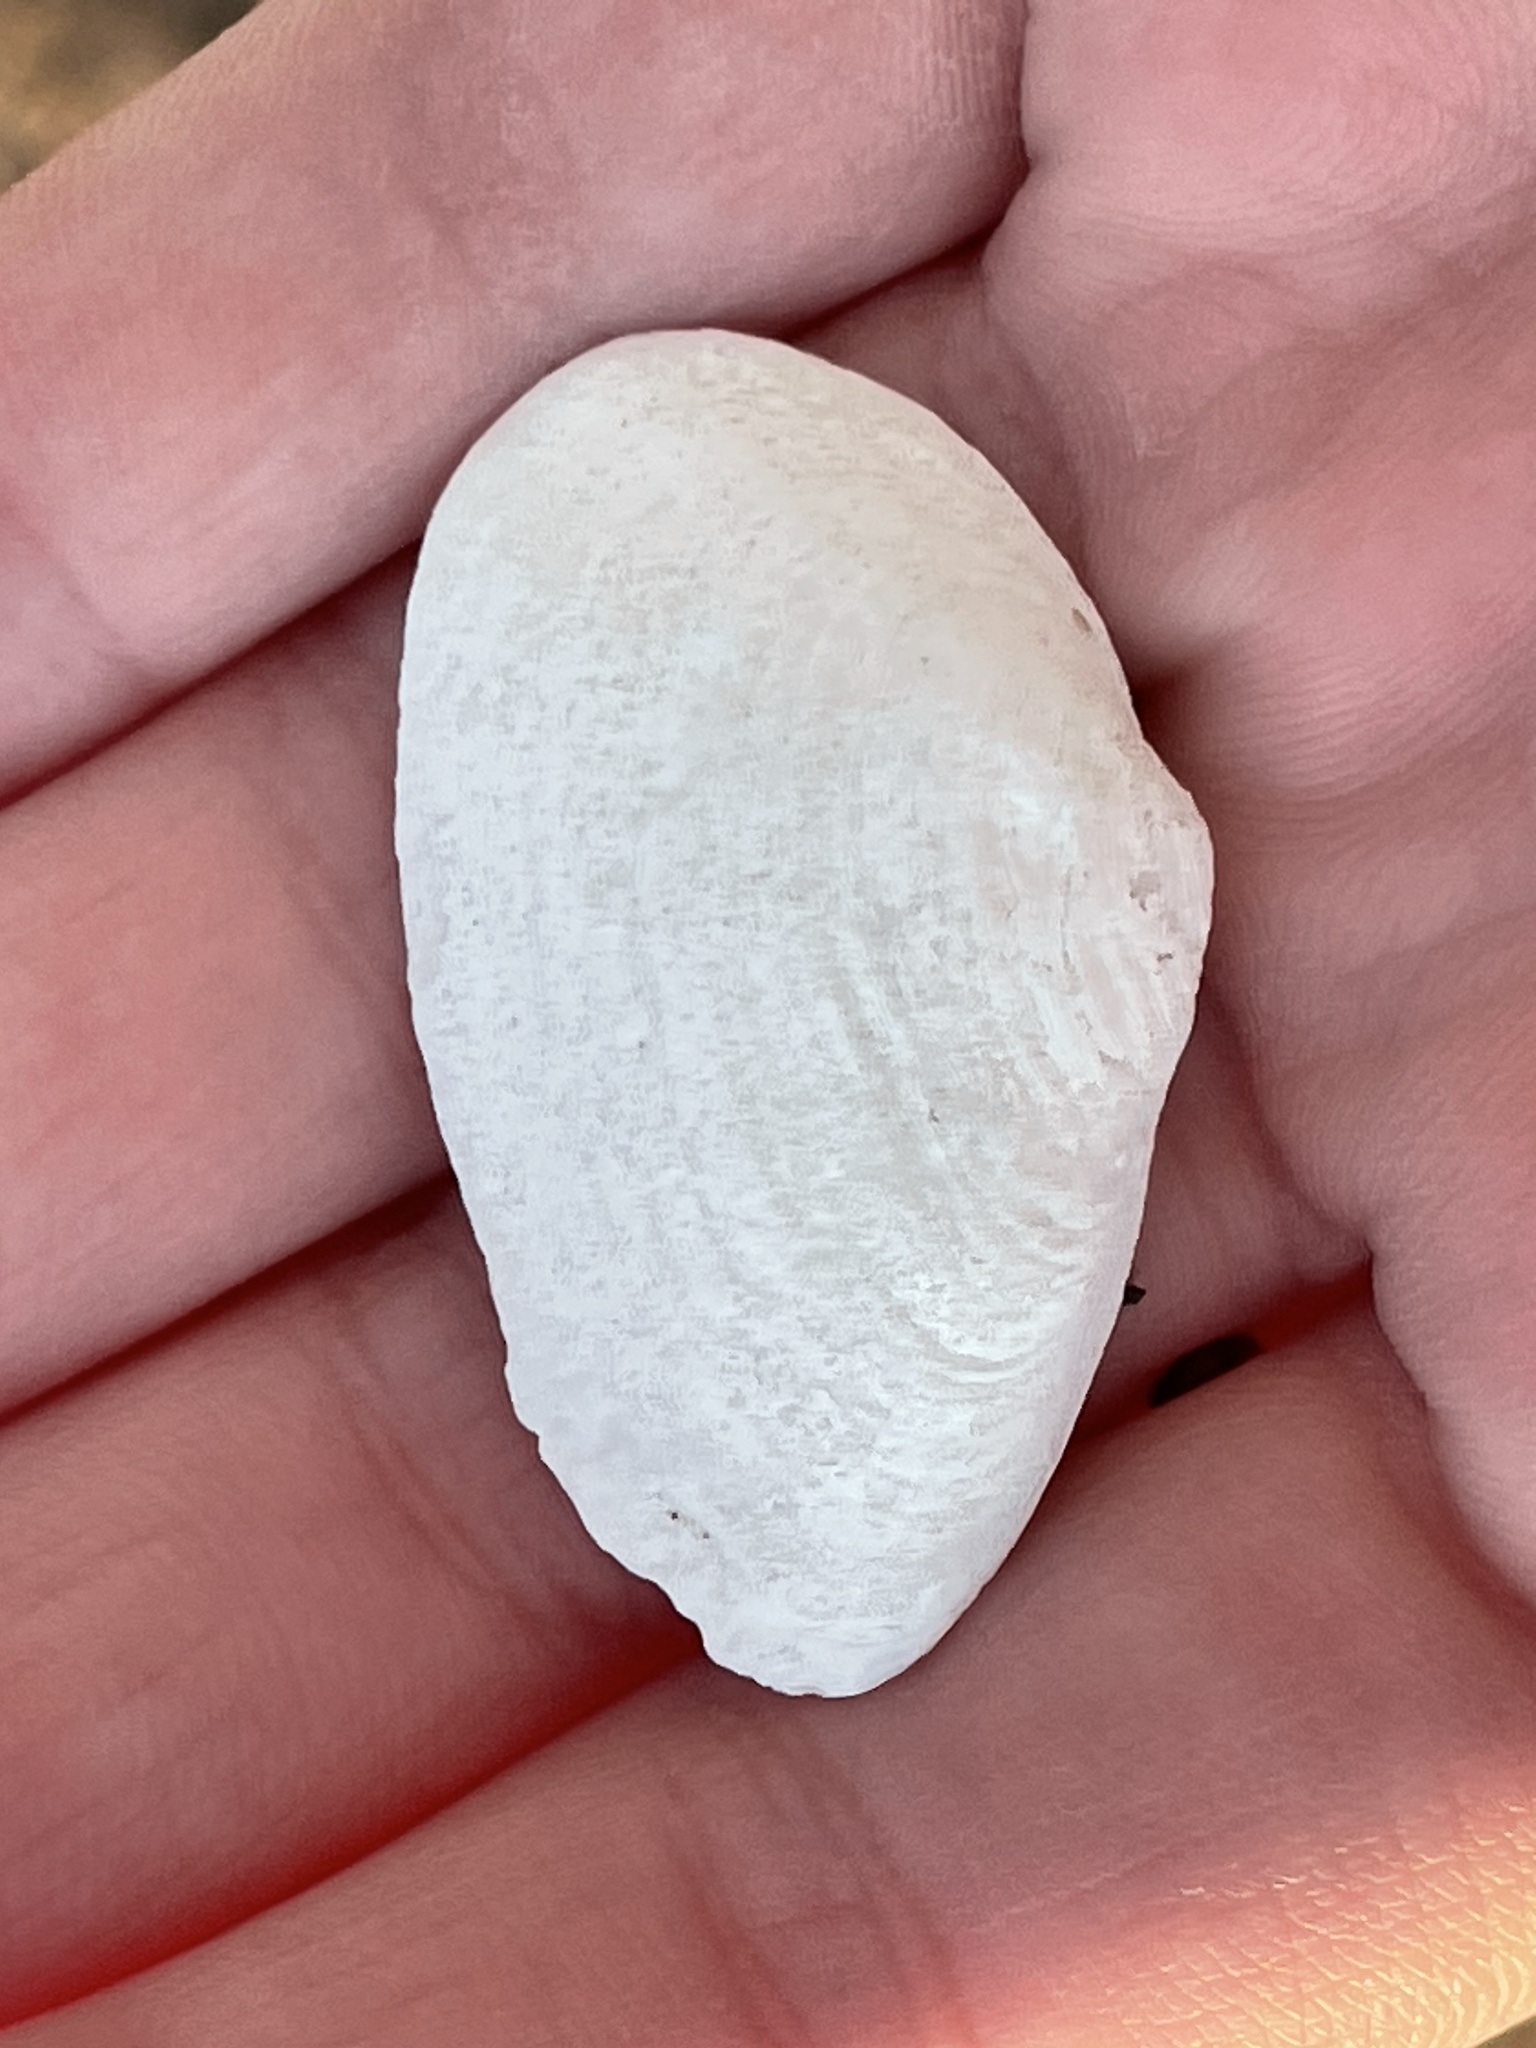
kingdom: Animalia
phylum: Mollusca
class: Bivalvia
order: Myida
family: Myidae
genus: Mya
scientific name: Mya arenaria
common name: Soft-shelled clam
